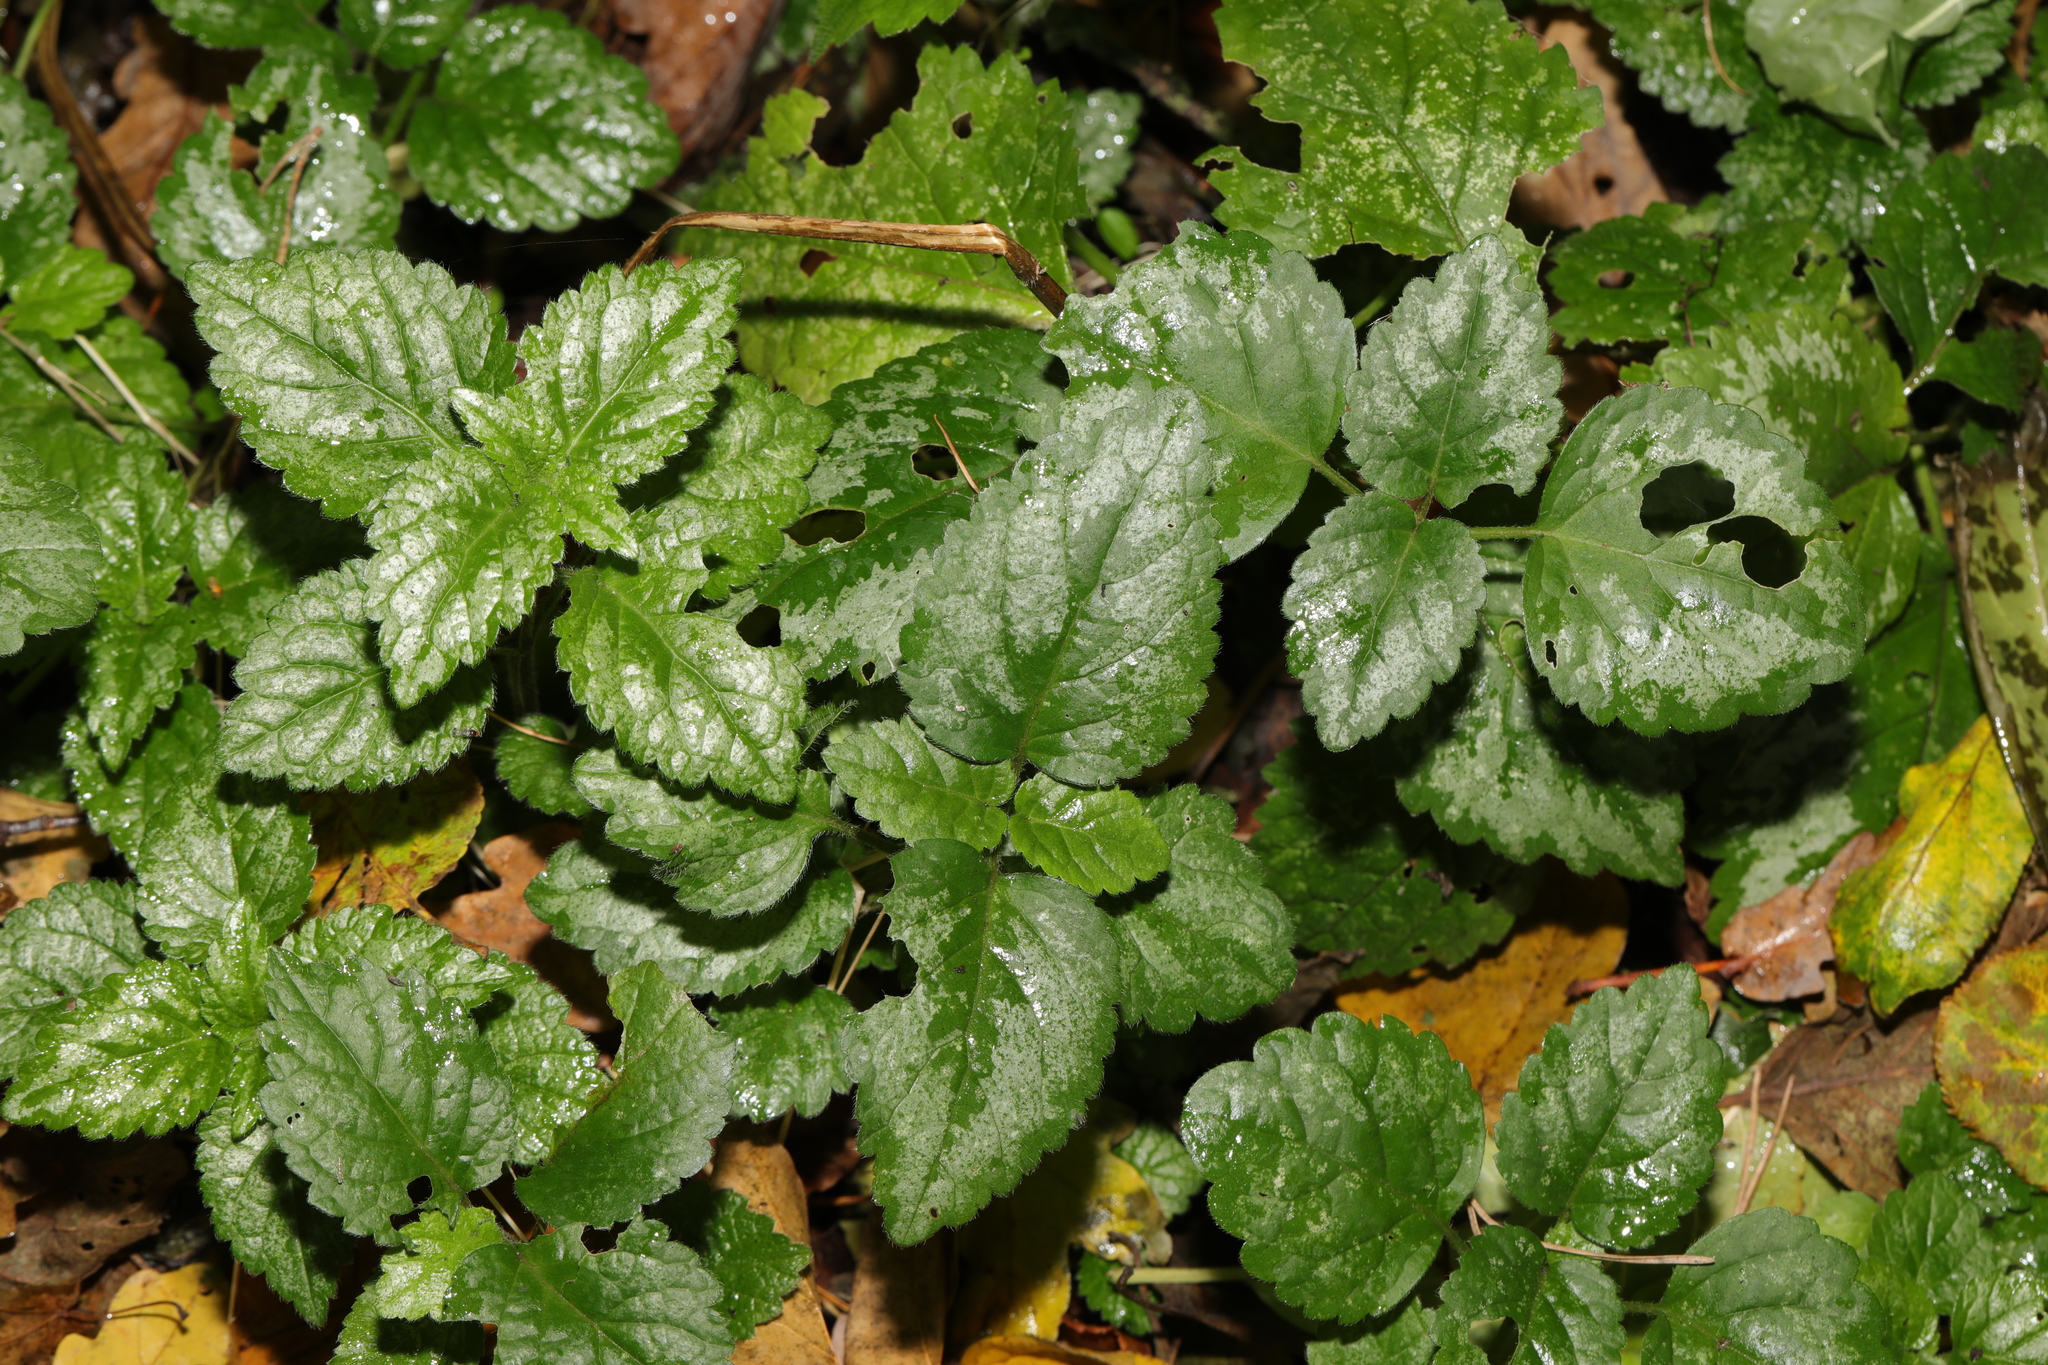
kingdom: Plantae
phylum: Tracheophyta
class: Magnoliopsida
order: Lamiales
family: Lamiaceae
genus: Lamium
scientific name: Lamium galeobdolon
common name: Yellow archangel
